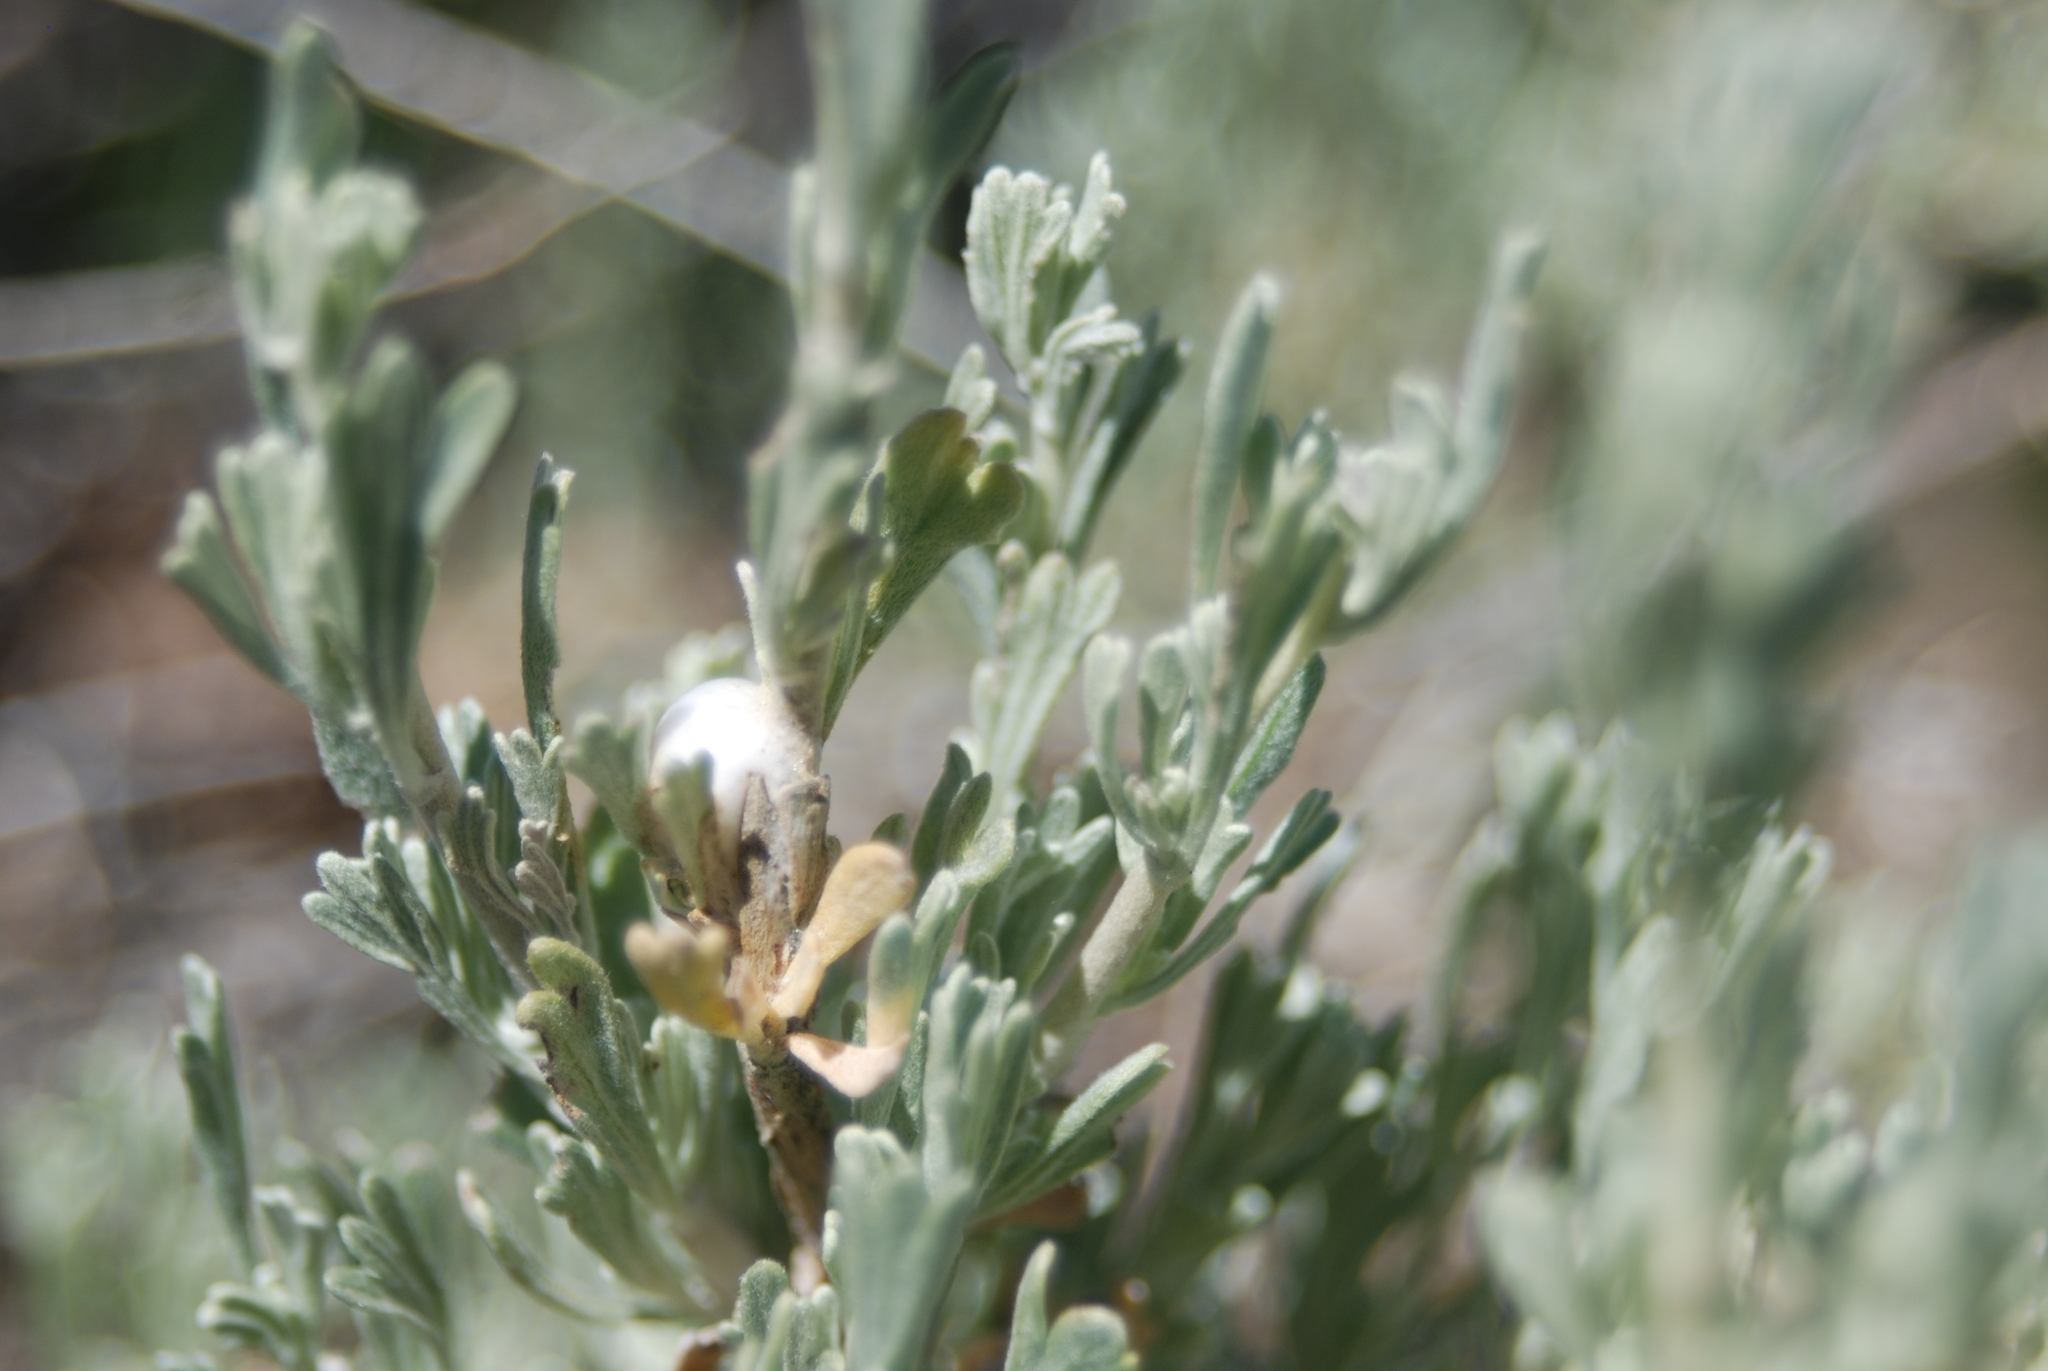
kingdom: Plantae
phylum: Tracheophyta
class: Magnoliopsida
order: Asterales
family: Asteraceae
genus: Artemisia
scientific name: Artemisia tridentata
